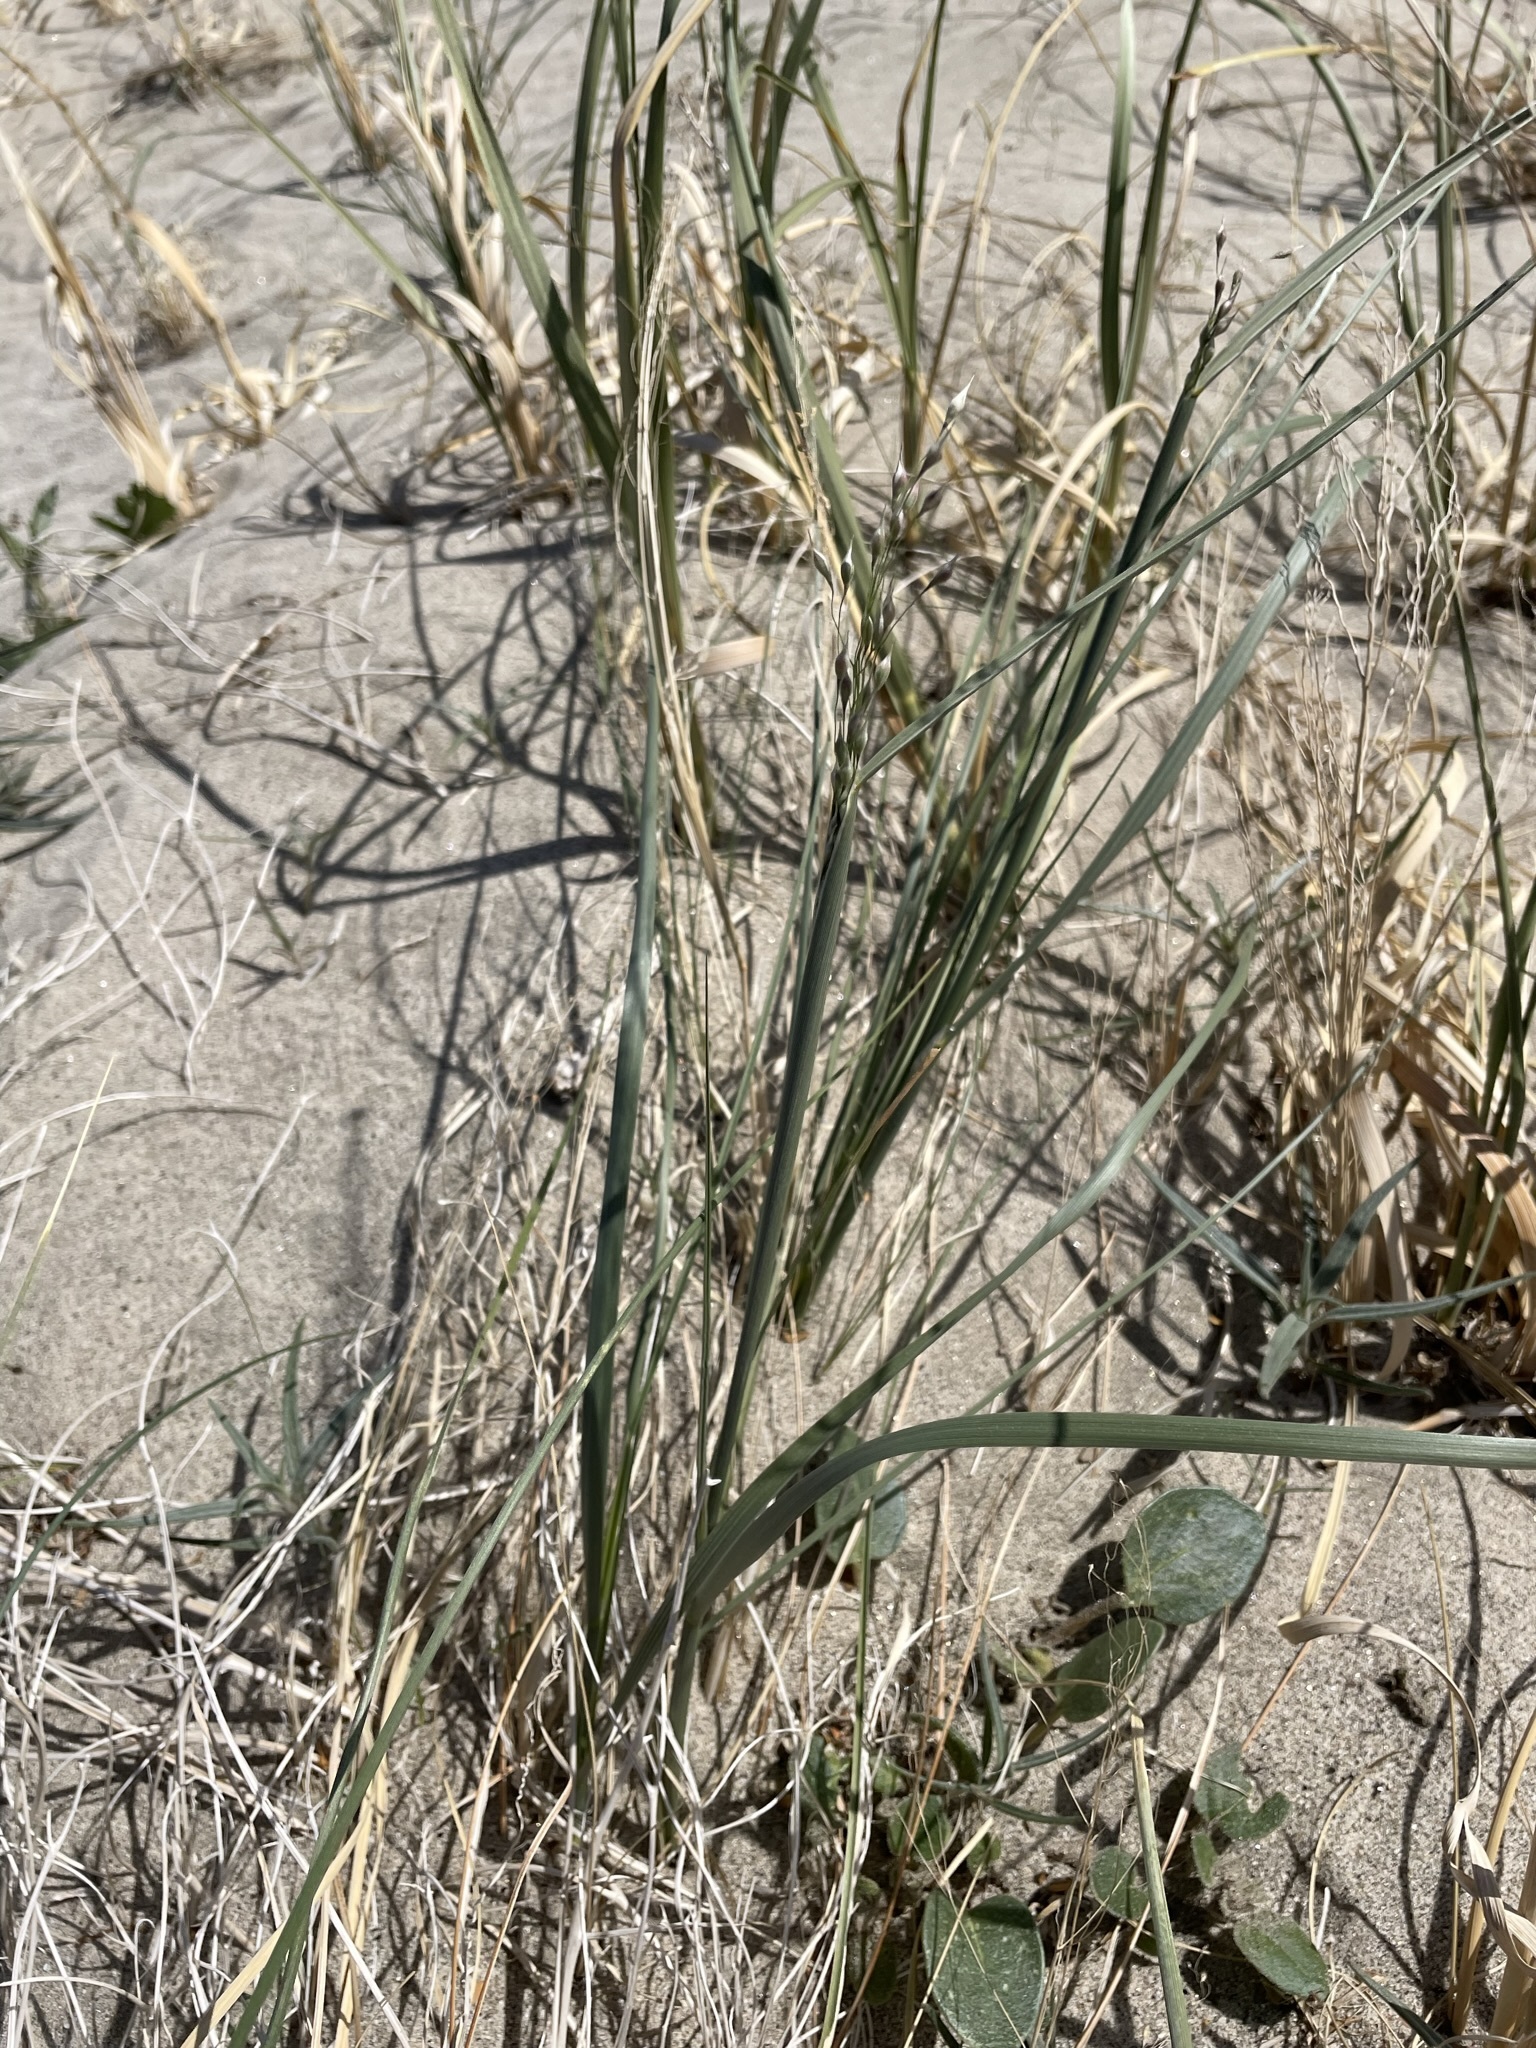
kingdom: Plantae
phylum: Tracheophyta
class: Liliopsida
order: Poales
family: Poaceae
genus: Eriocoma
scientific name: Eriocoma hymenoides
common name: Indian mountain ricegrass
